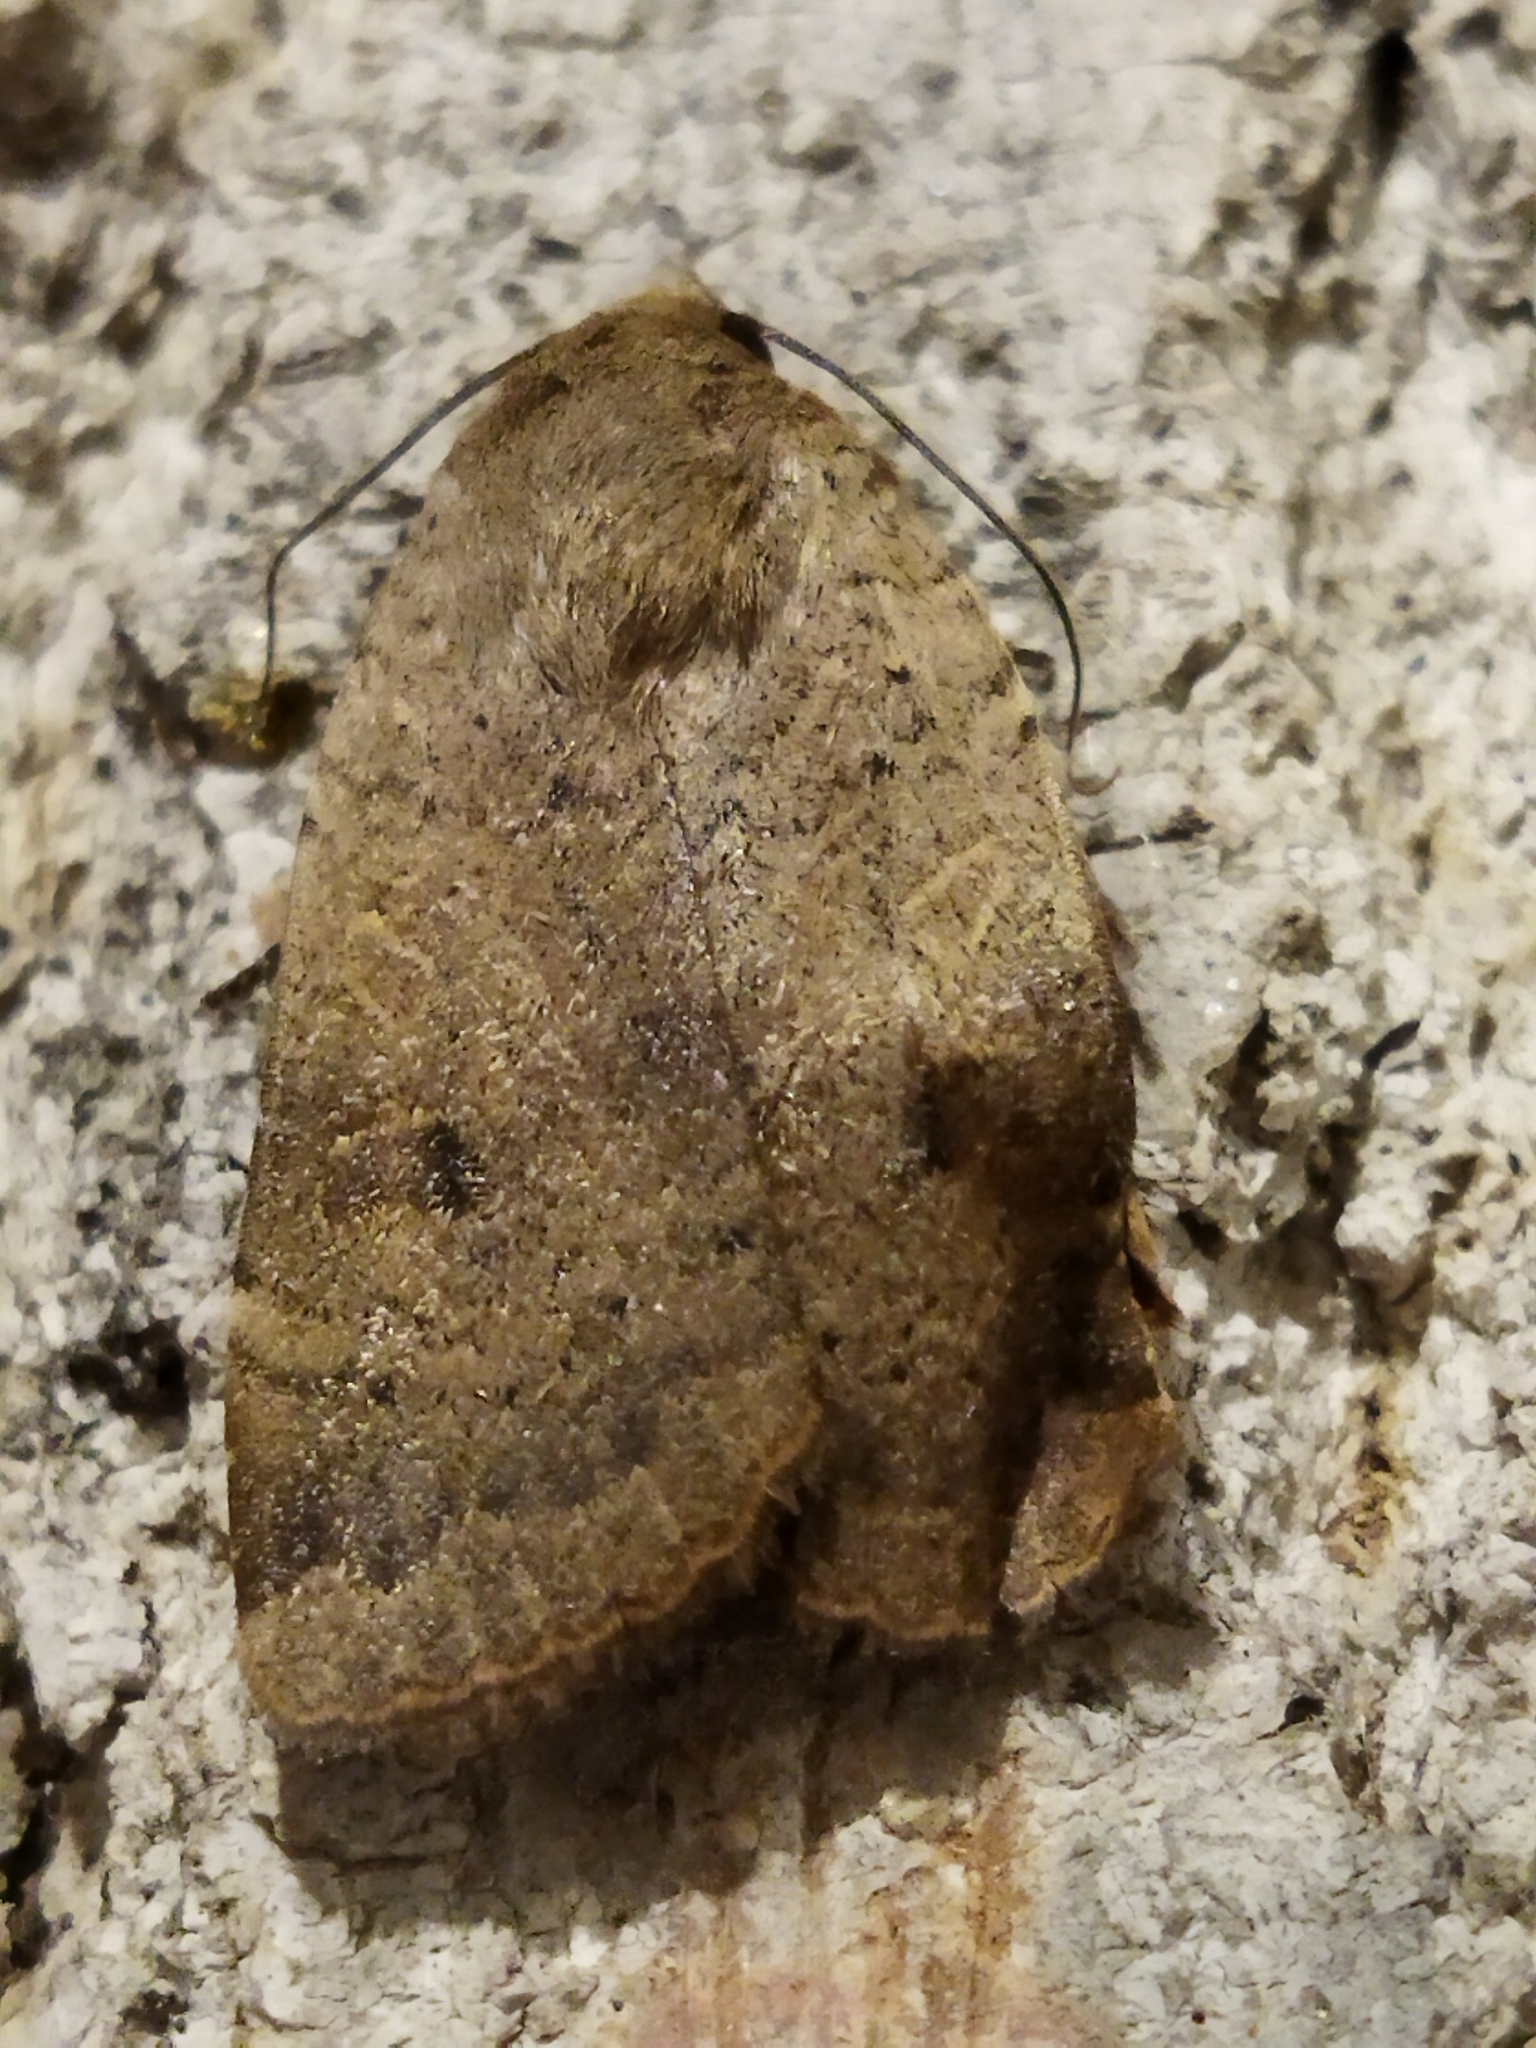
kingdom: Animalia
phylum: Arthropoda
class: Insecta
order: Lepidoptera
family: Noctuidae
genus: Noctua
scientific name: Noctua comes
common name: Lesser yellow underwing
